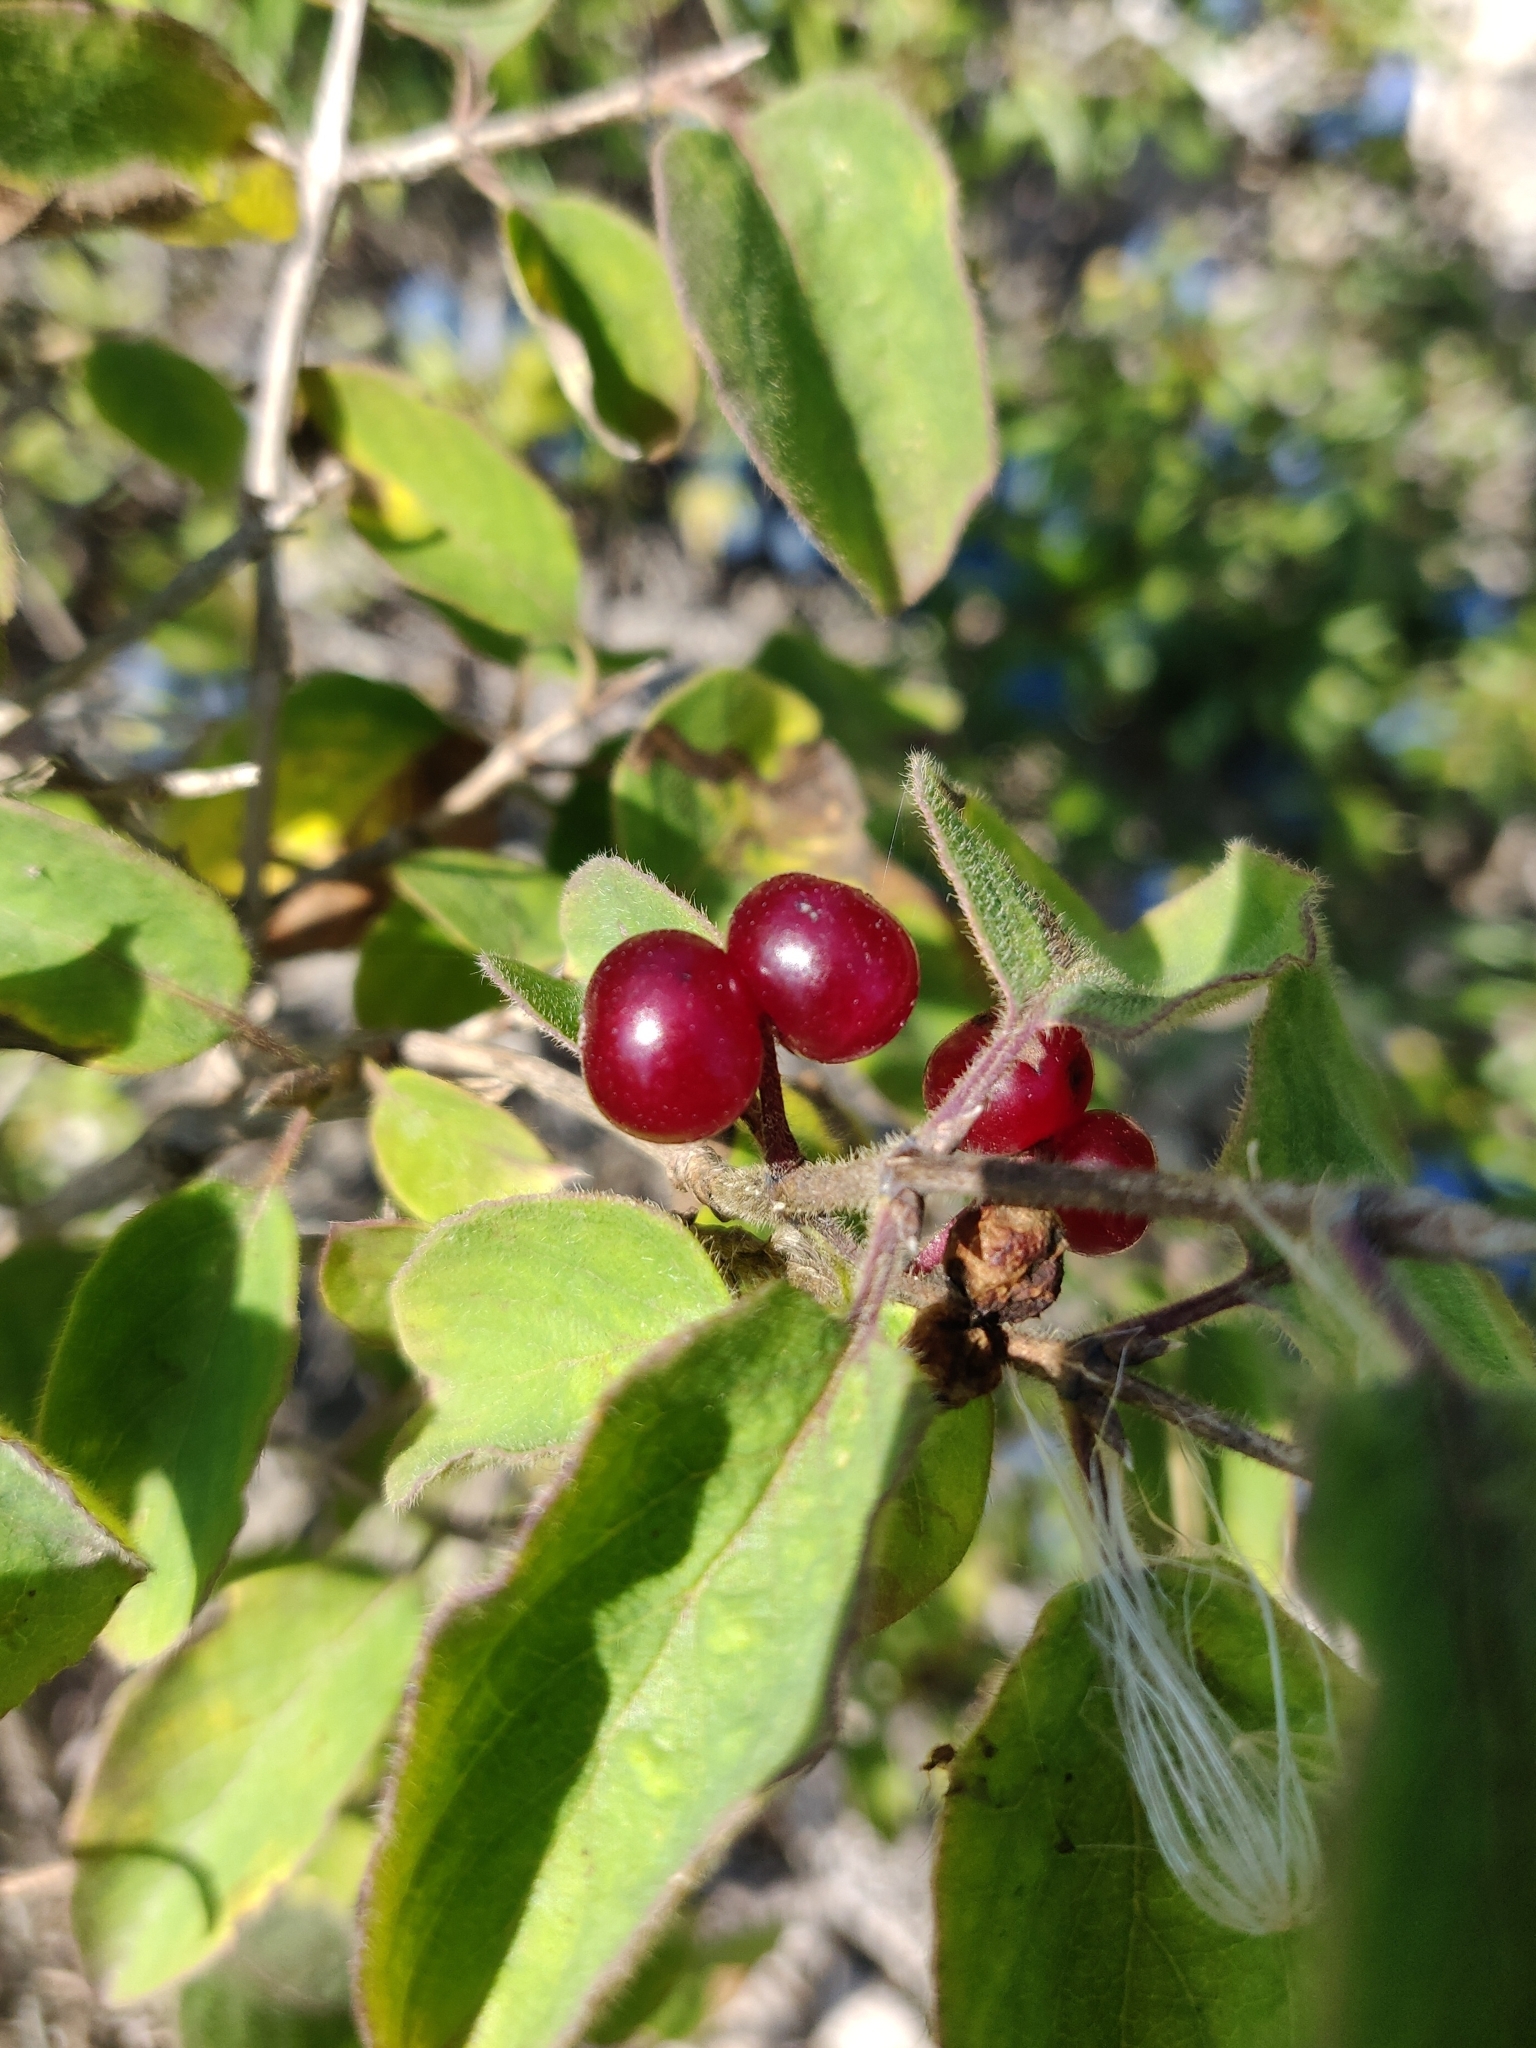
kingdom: Plantae
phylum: Tracheophyta
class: Magnoliopsida
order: Dipsacales
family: Caprifoliaceae
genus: Lonicera
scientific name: Lonicera xylosteum
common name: Fly honeysuckle
